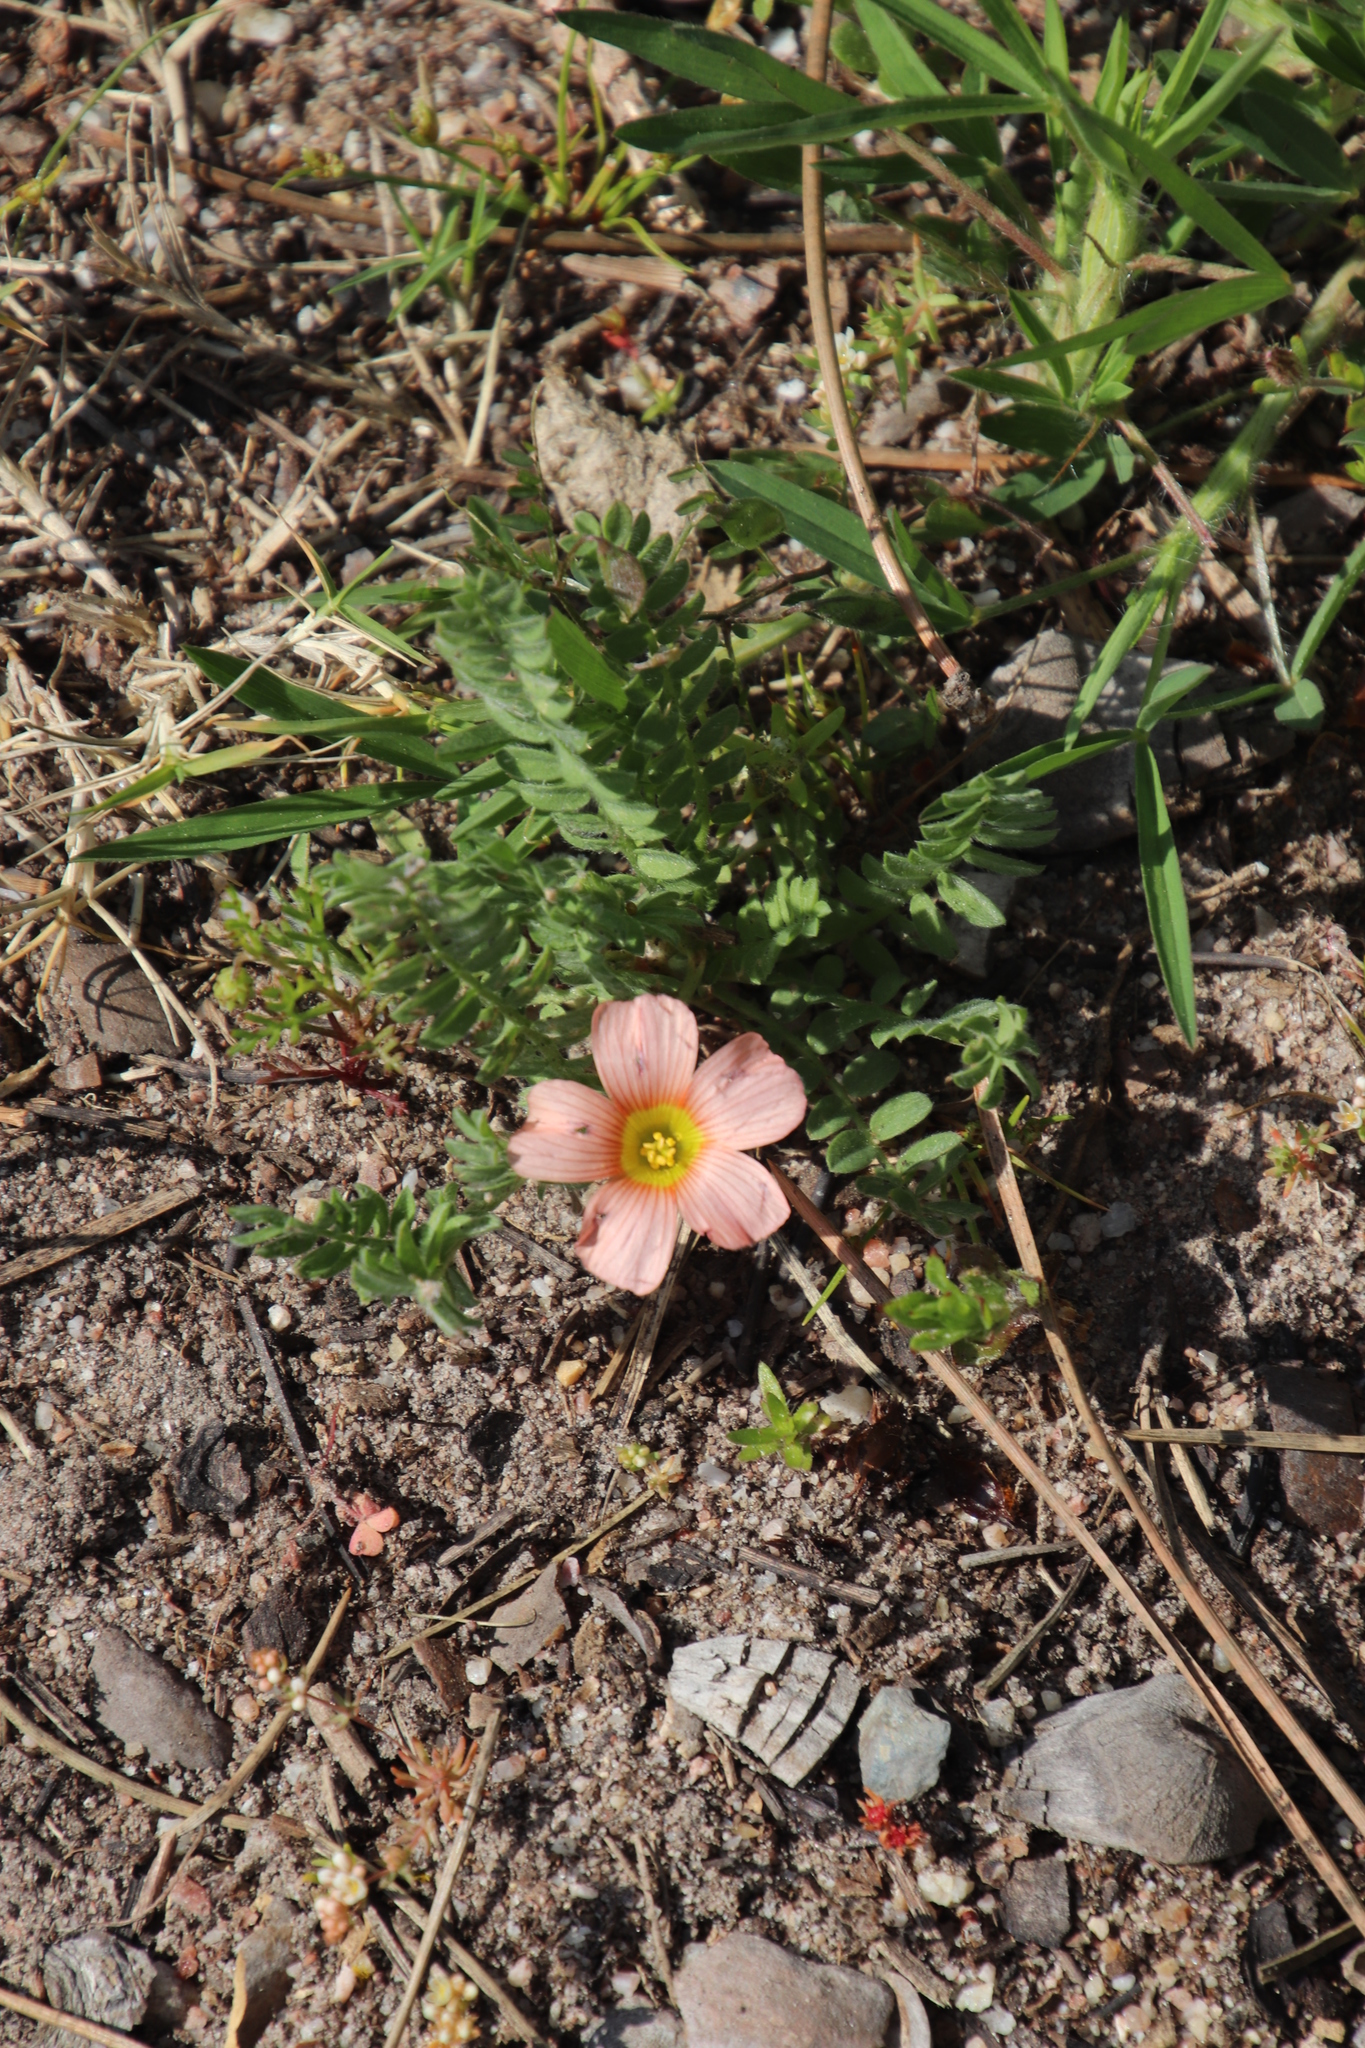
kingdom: Plantae
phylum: Tracheophyta
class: Magnoliopsida
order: Oxalidales
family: Oxalidaceae
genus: Oxalis
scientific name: Oxalis obtusa
